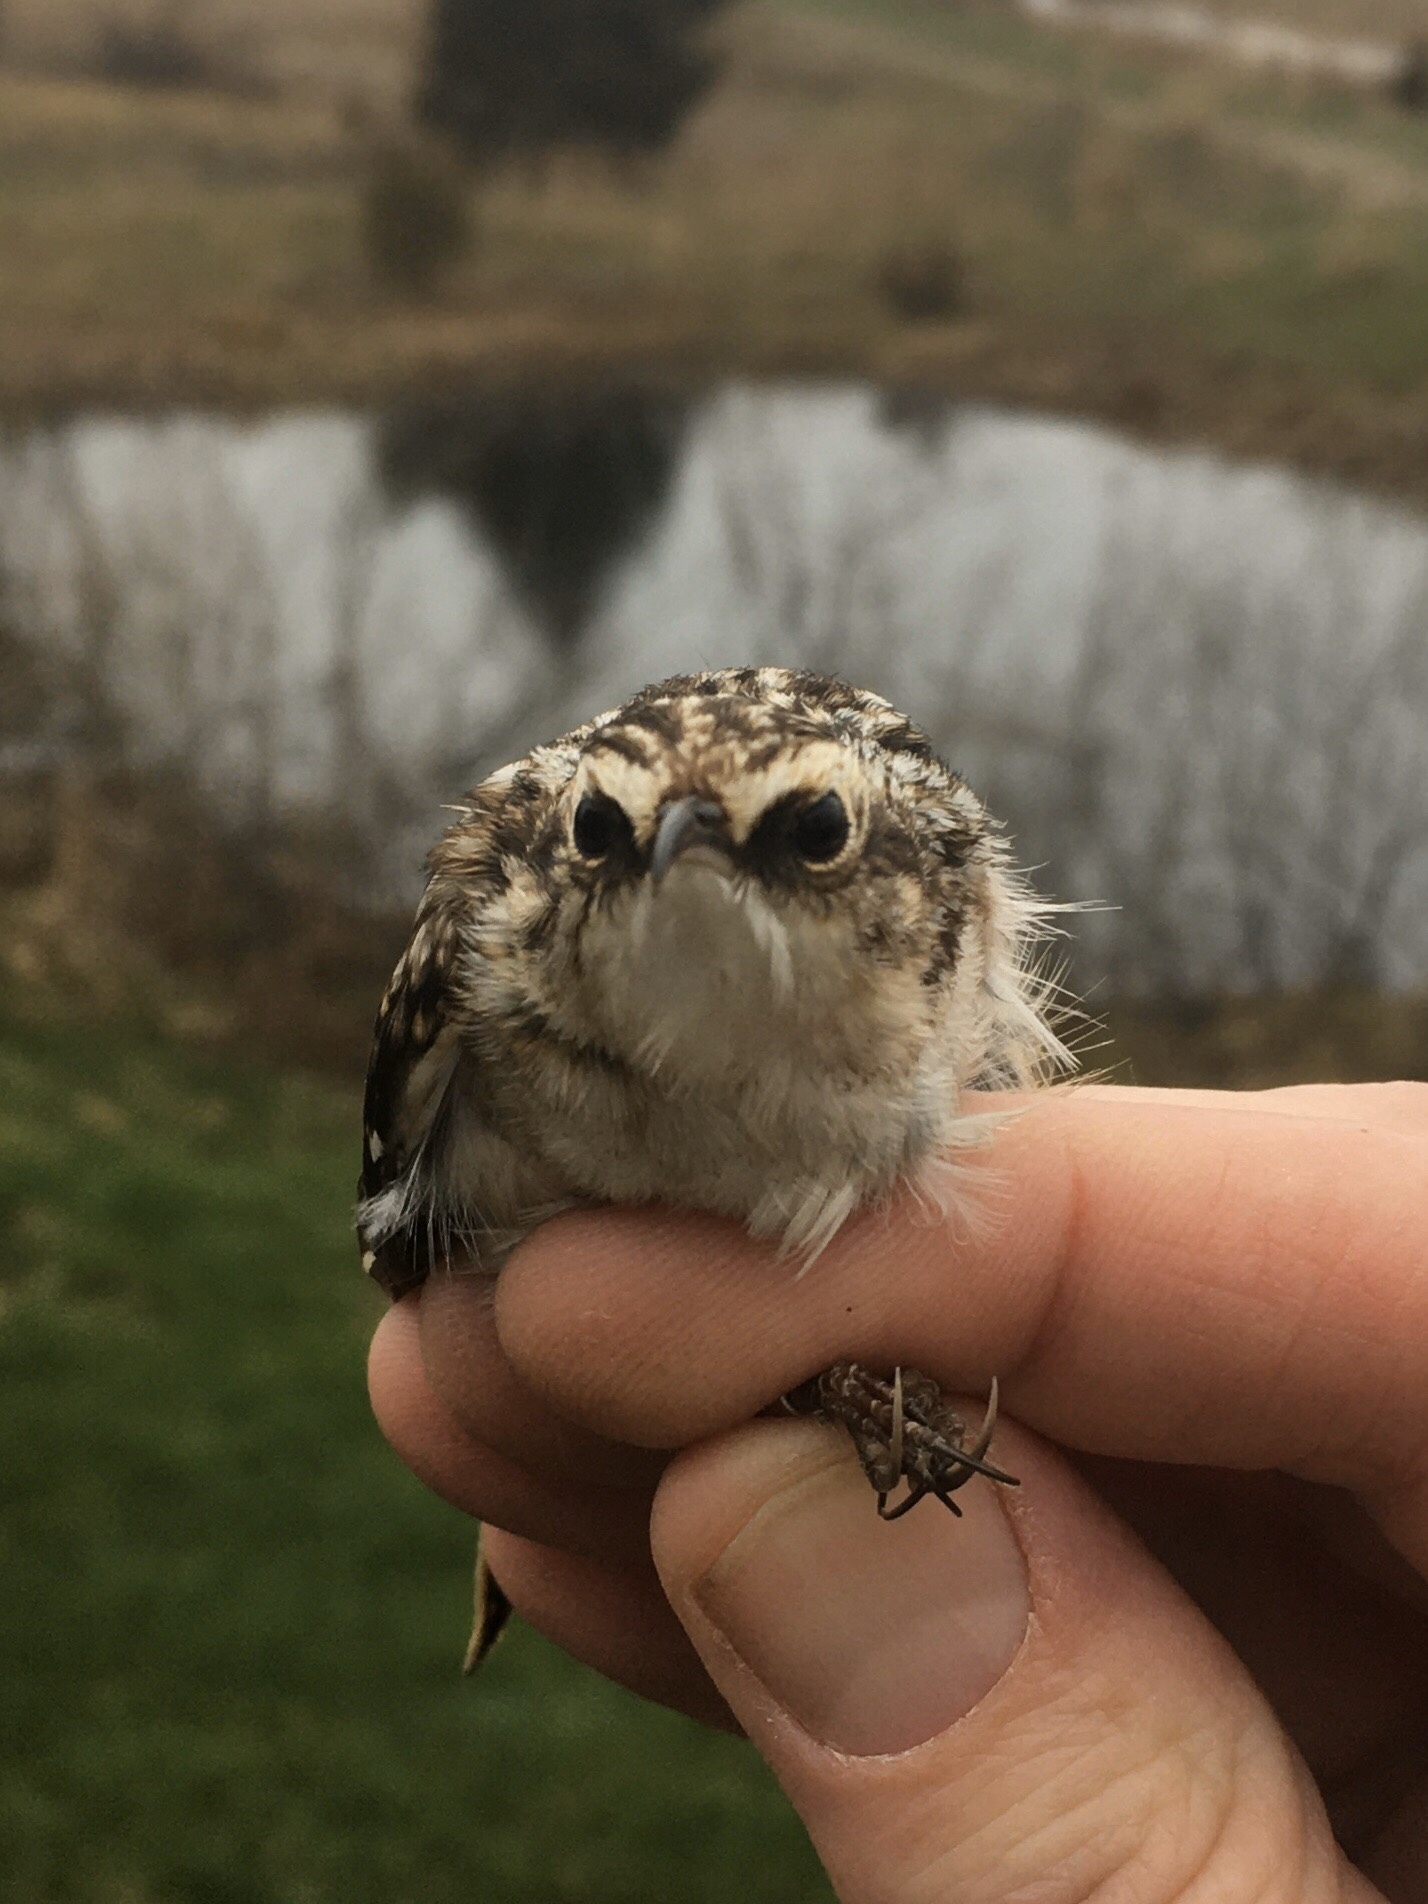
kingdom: Animalia
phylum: Chordata
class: Aves
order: Passeriformes
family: Certhiidae
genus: Certhia
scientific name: Certhia americana
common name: Brown creeper
